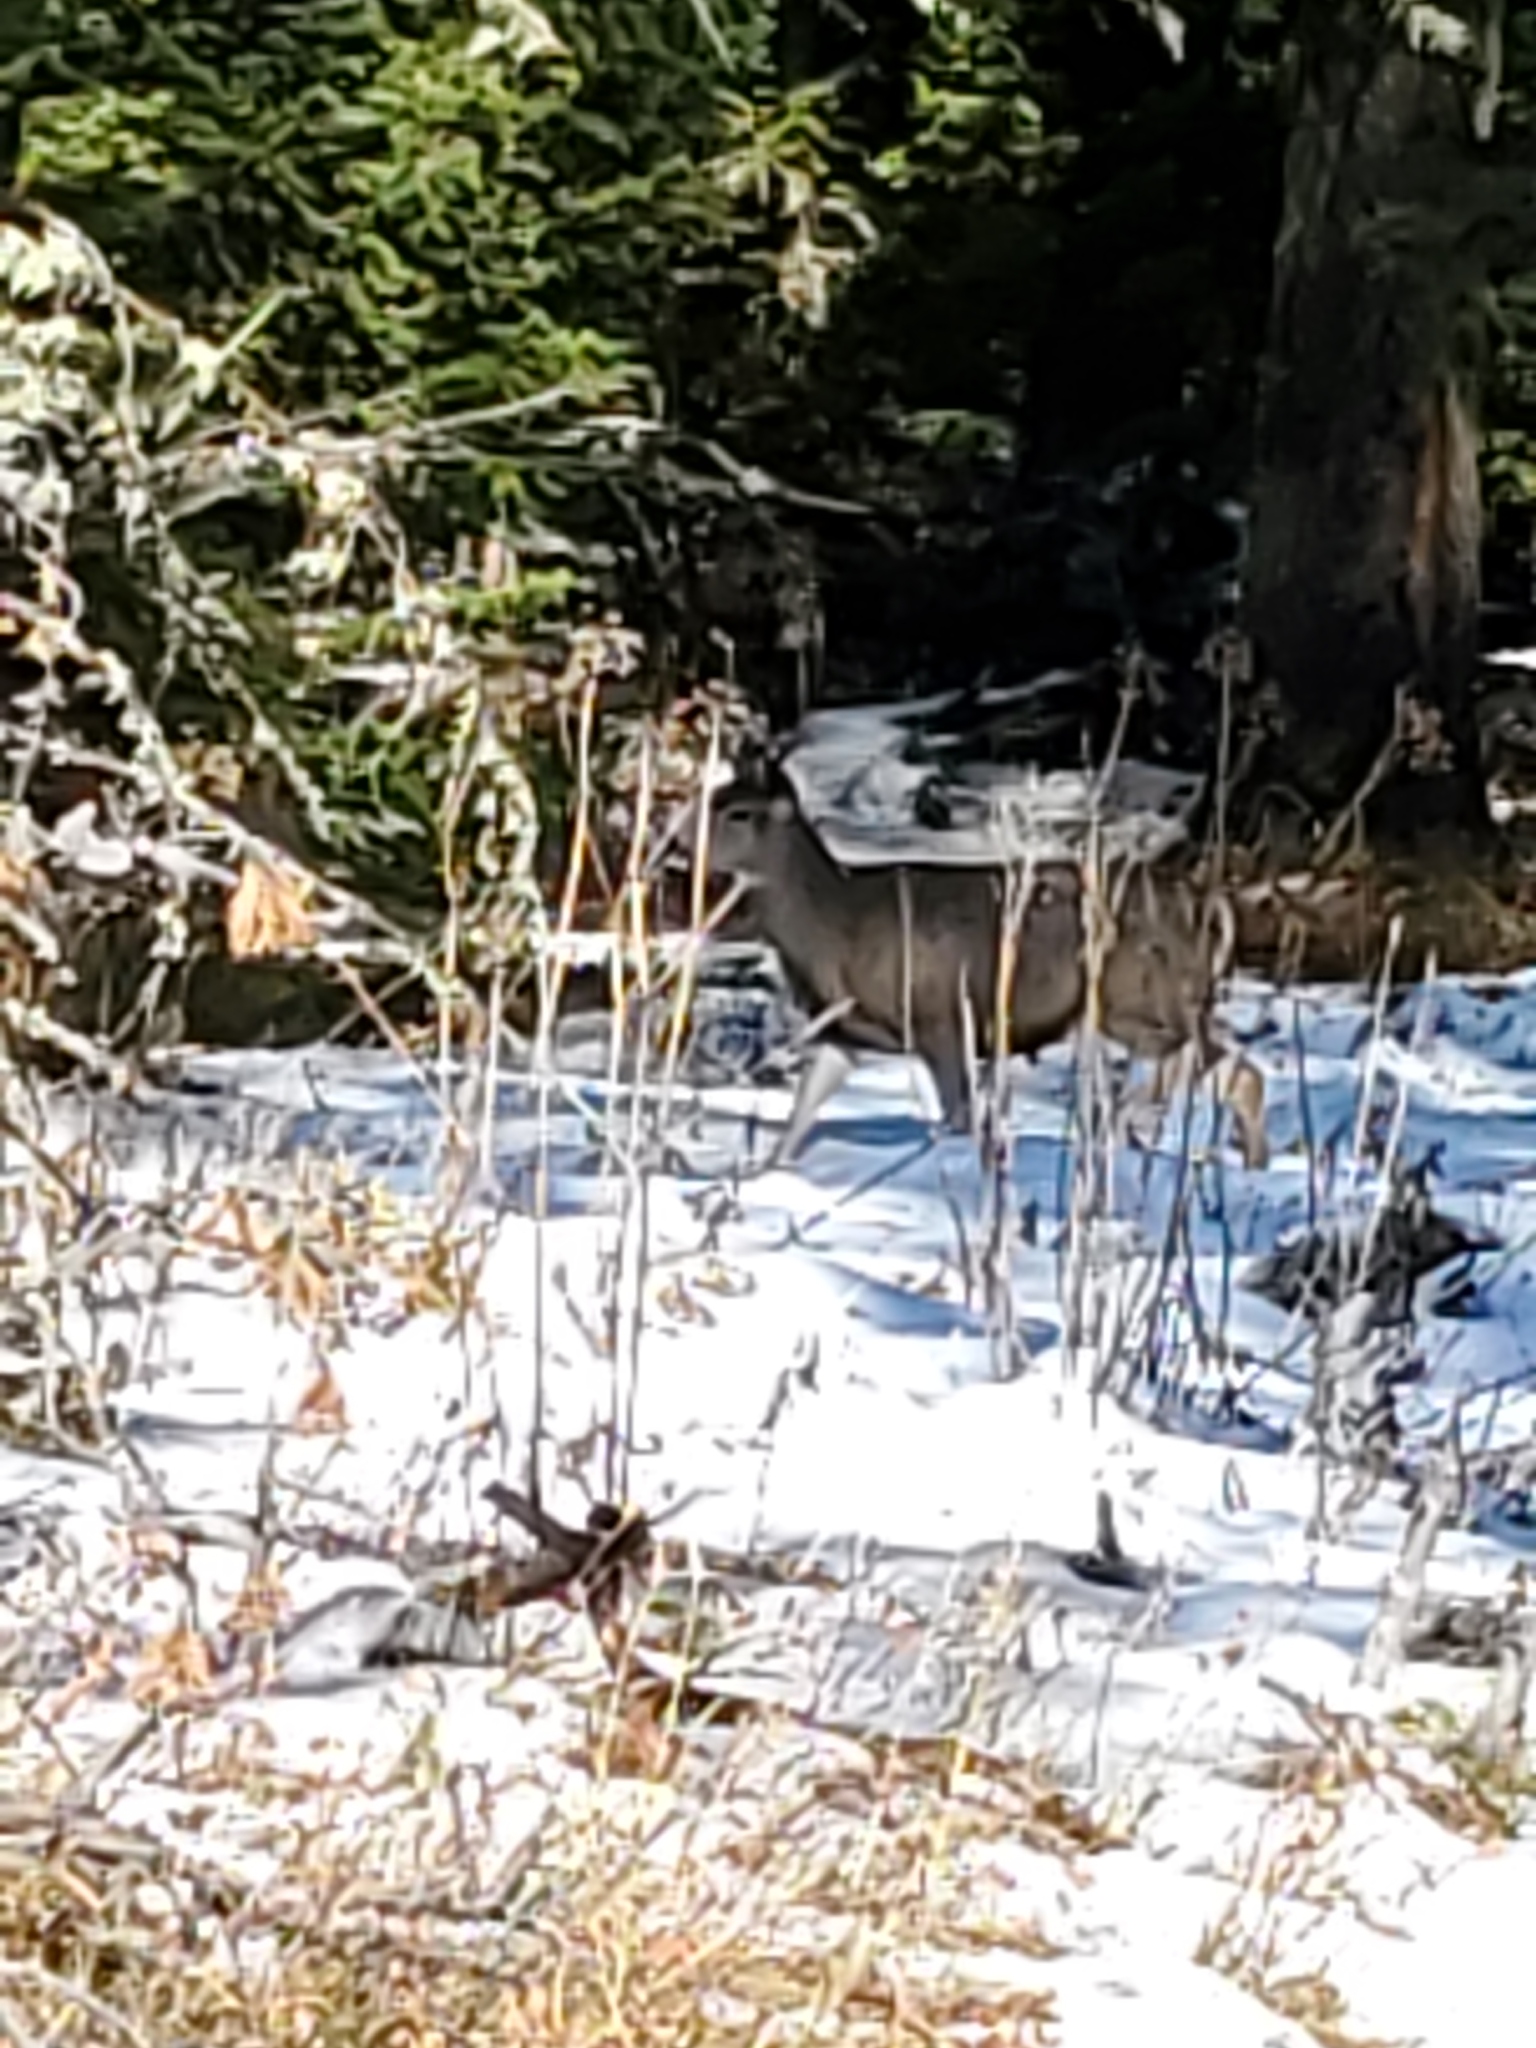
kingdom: Animalia
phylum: Chordata
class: Mammalia
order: Artiodactyla
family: Cervidae
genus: Odocoileus
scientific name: Odocoileus hemionus
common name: Mule deer
